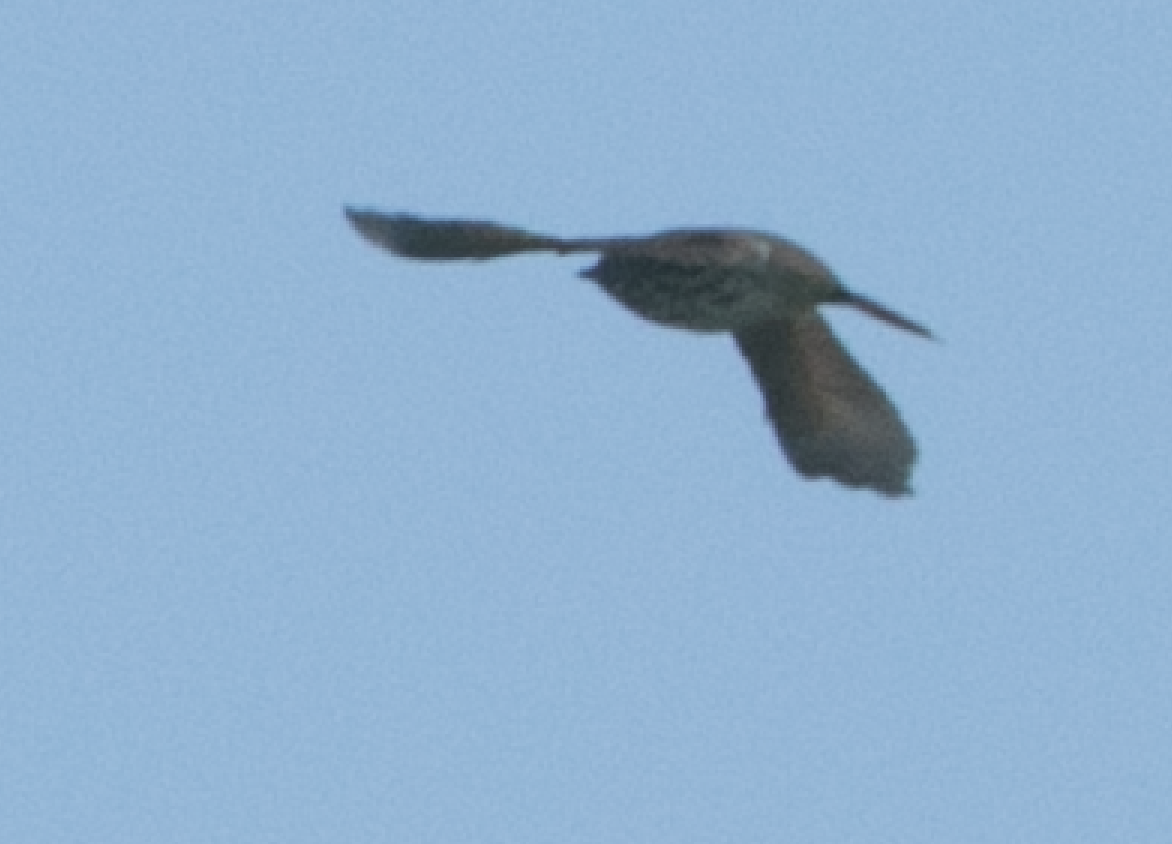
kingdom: Animalia
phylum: Chordata
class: Aves
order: Passeriformes
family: Turdidae
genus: Turdus
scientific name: Turdus philomelos
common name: Song thrush
